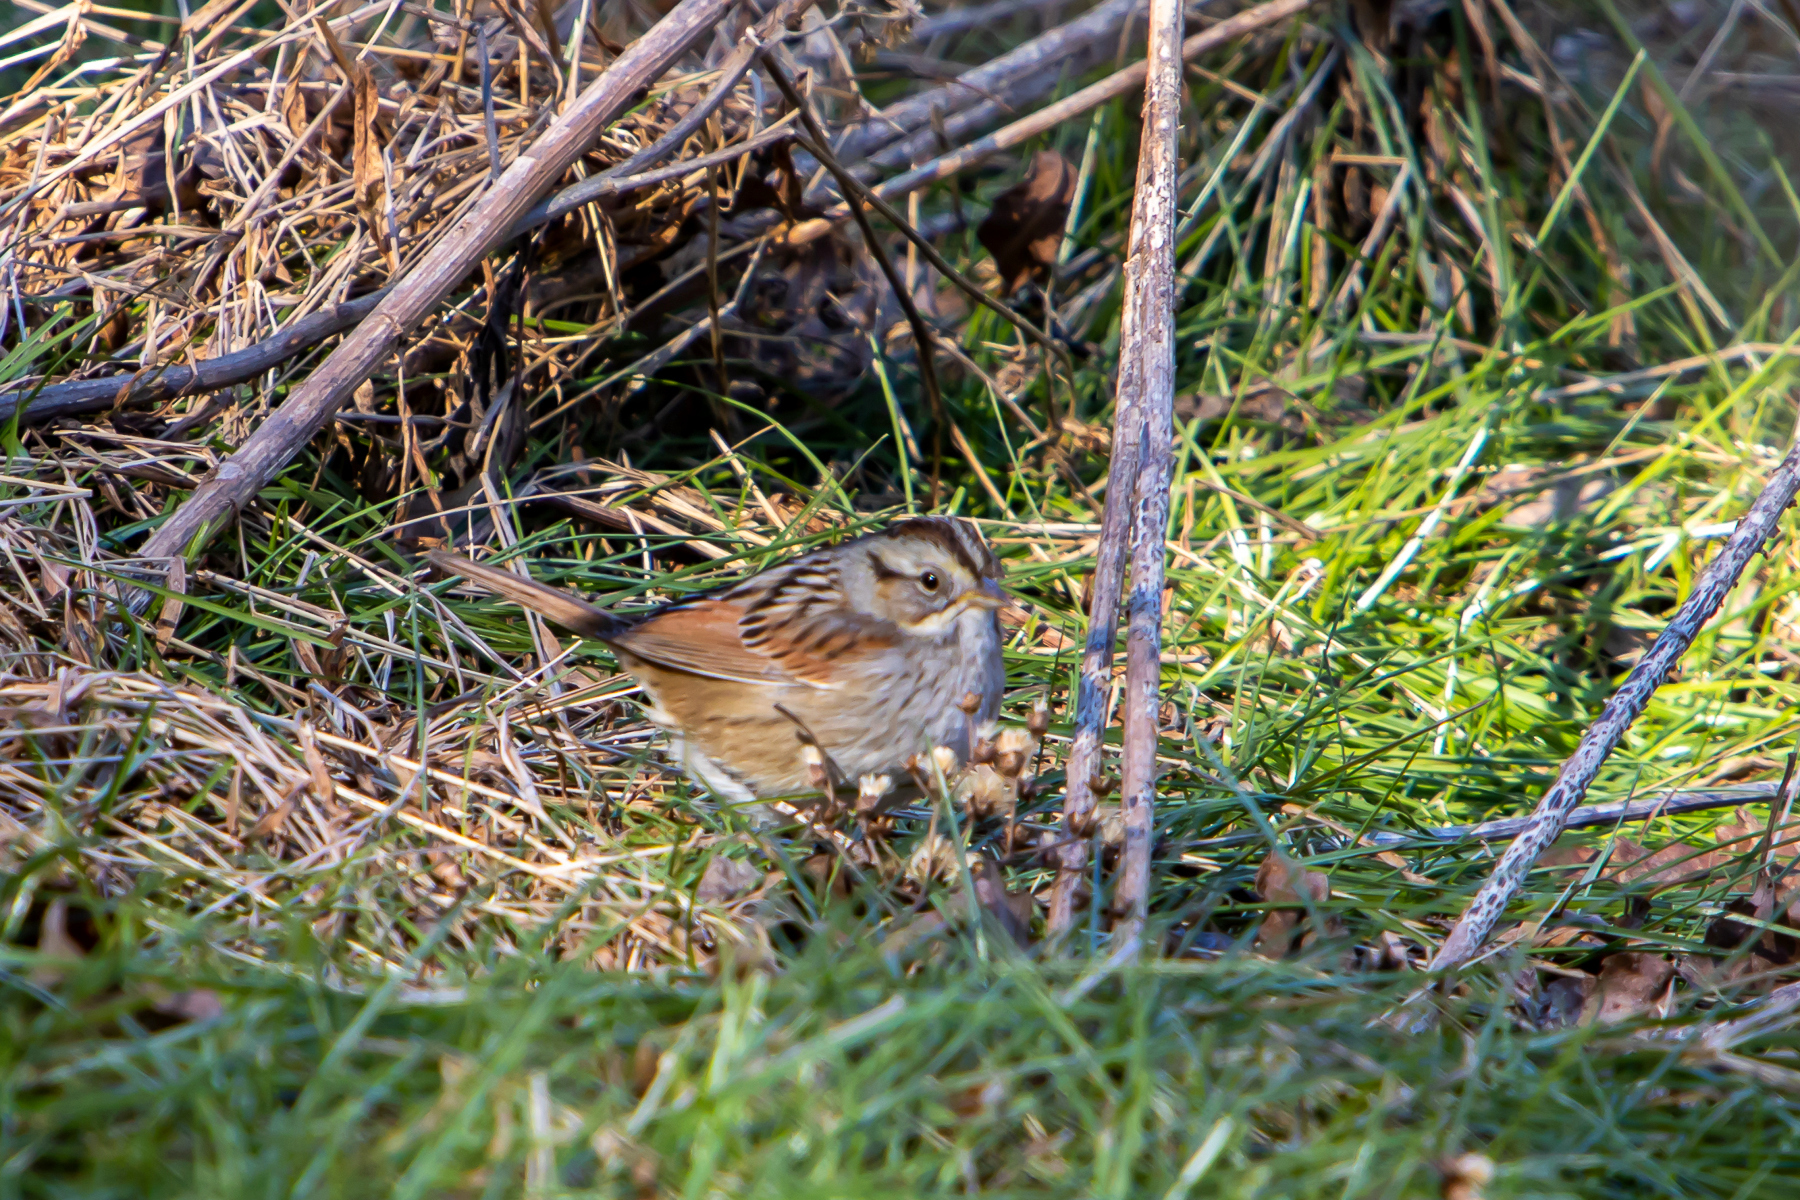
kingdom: Animalia
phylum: Chordata
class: Aves
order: Passeriformes
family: Passerellidae
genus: Melospiza
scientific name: Melospiza georgiana
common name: Swamp sparrow
